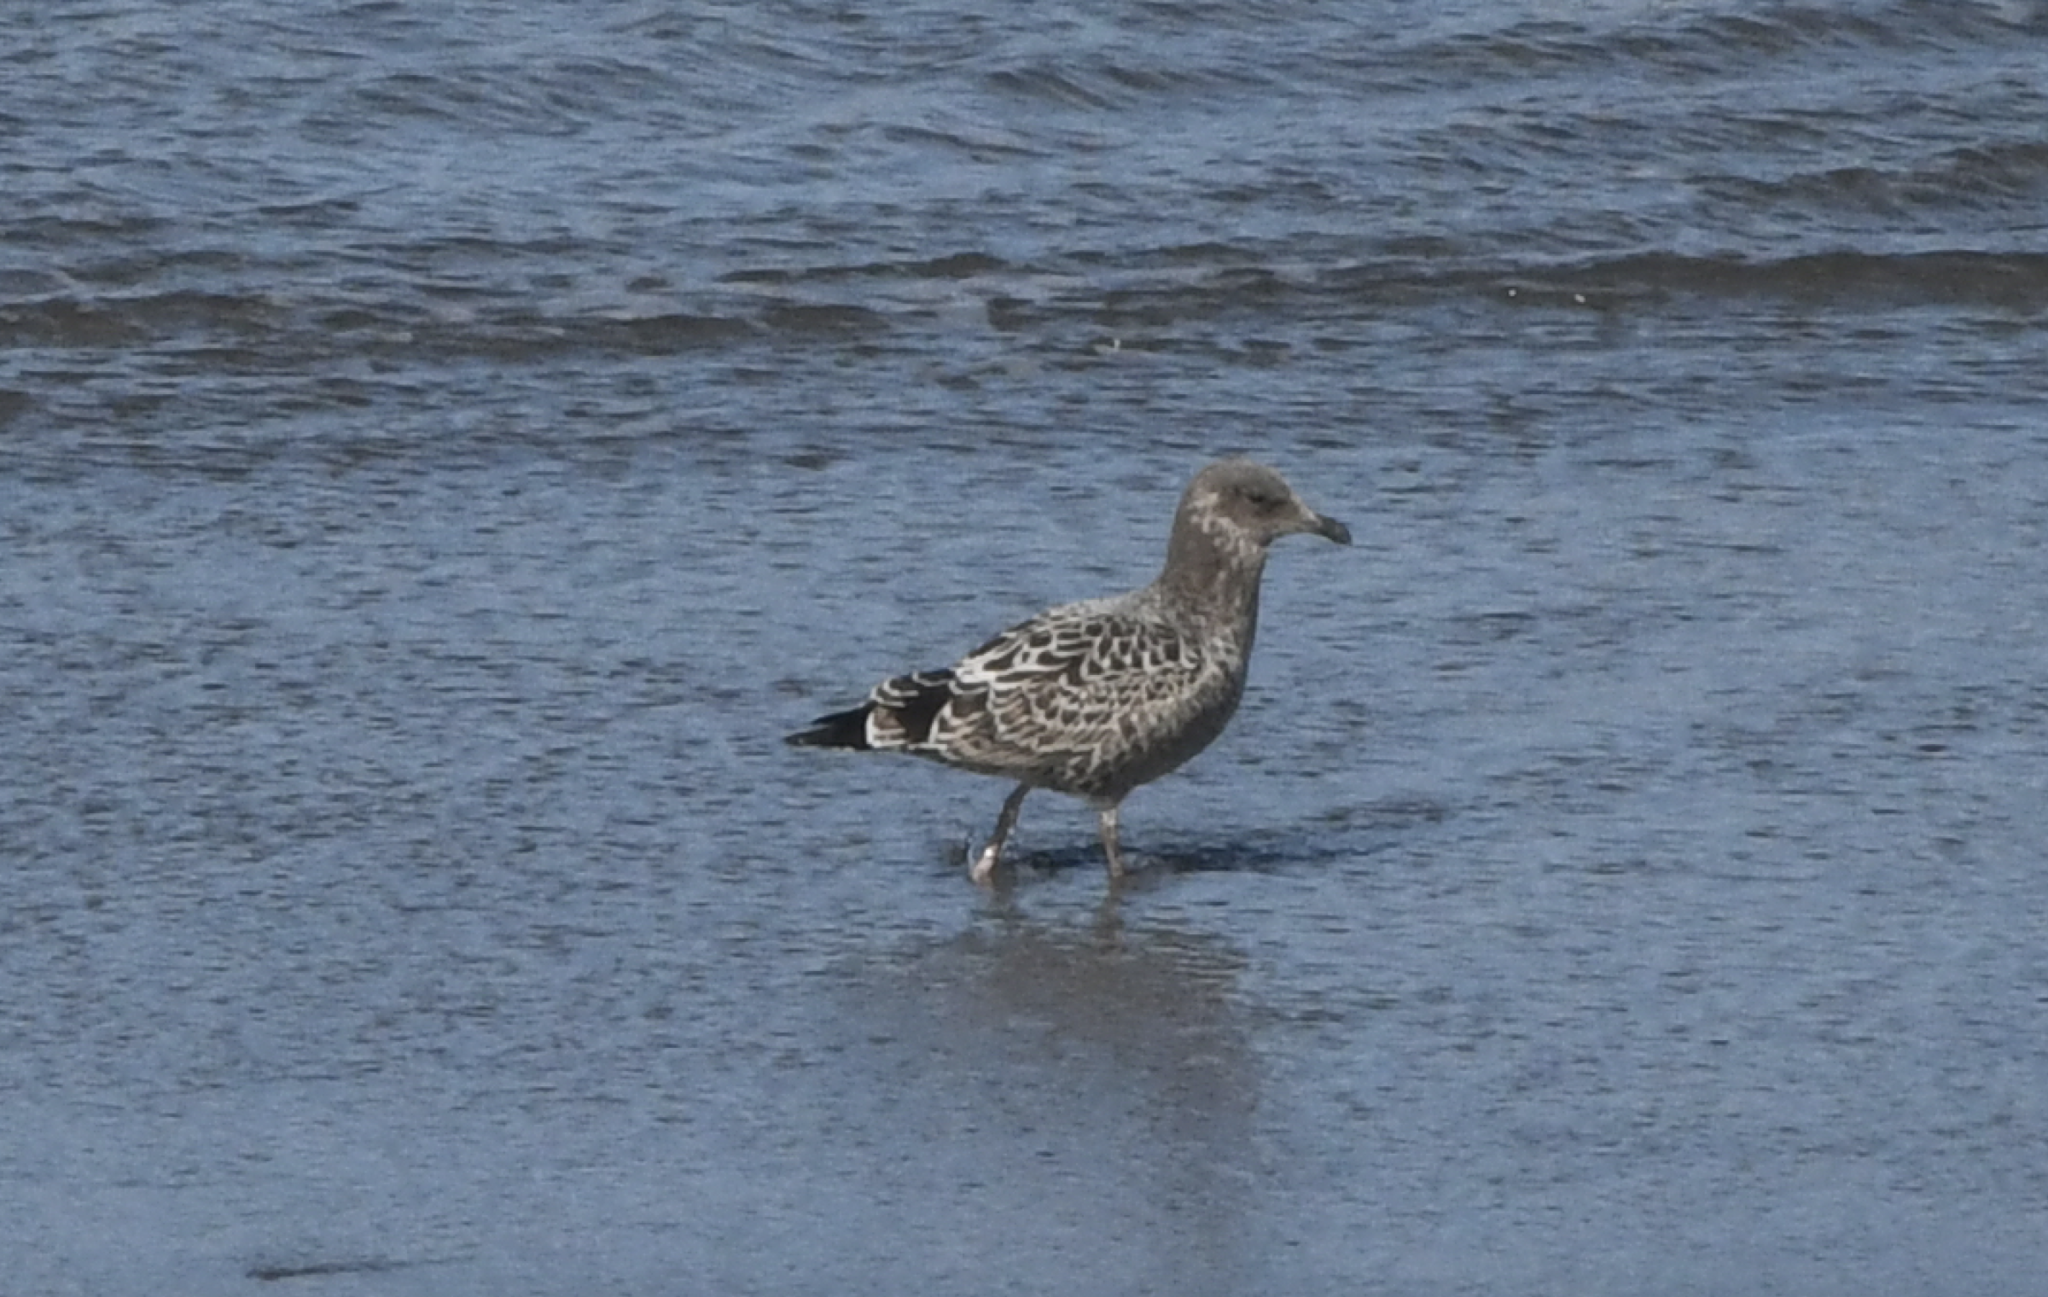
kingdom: Animalia
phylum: Chordata
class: Aves
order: Charadriiformes
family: Laridae
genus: Larus
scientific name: Larus californicus
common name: California gull
